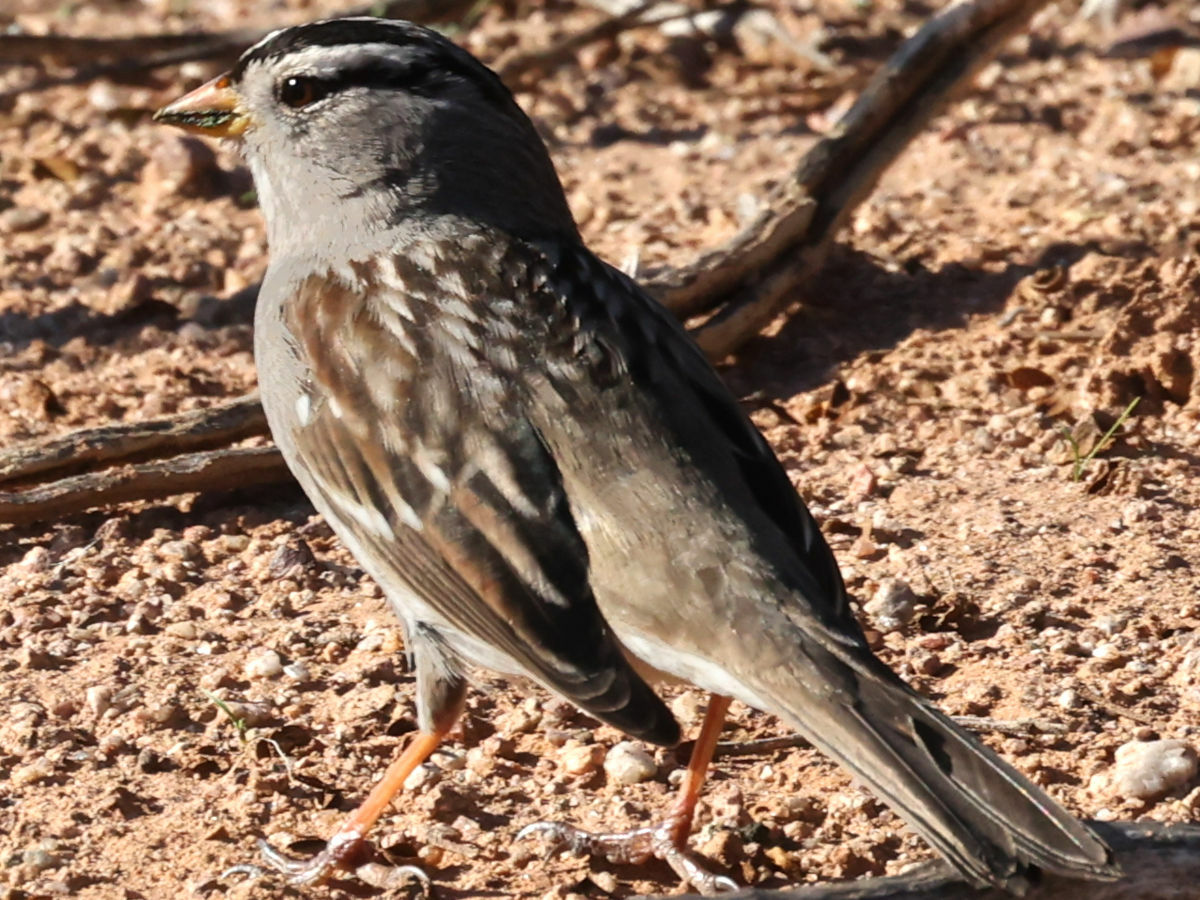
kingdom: Animalia
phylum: Chordata
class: Aves
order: Passeriformes
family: Passerellidae
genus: Zonotrichia
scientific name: Zonotrichia leucophrys
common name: White-crowned sparrow
